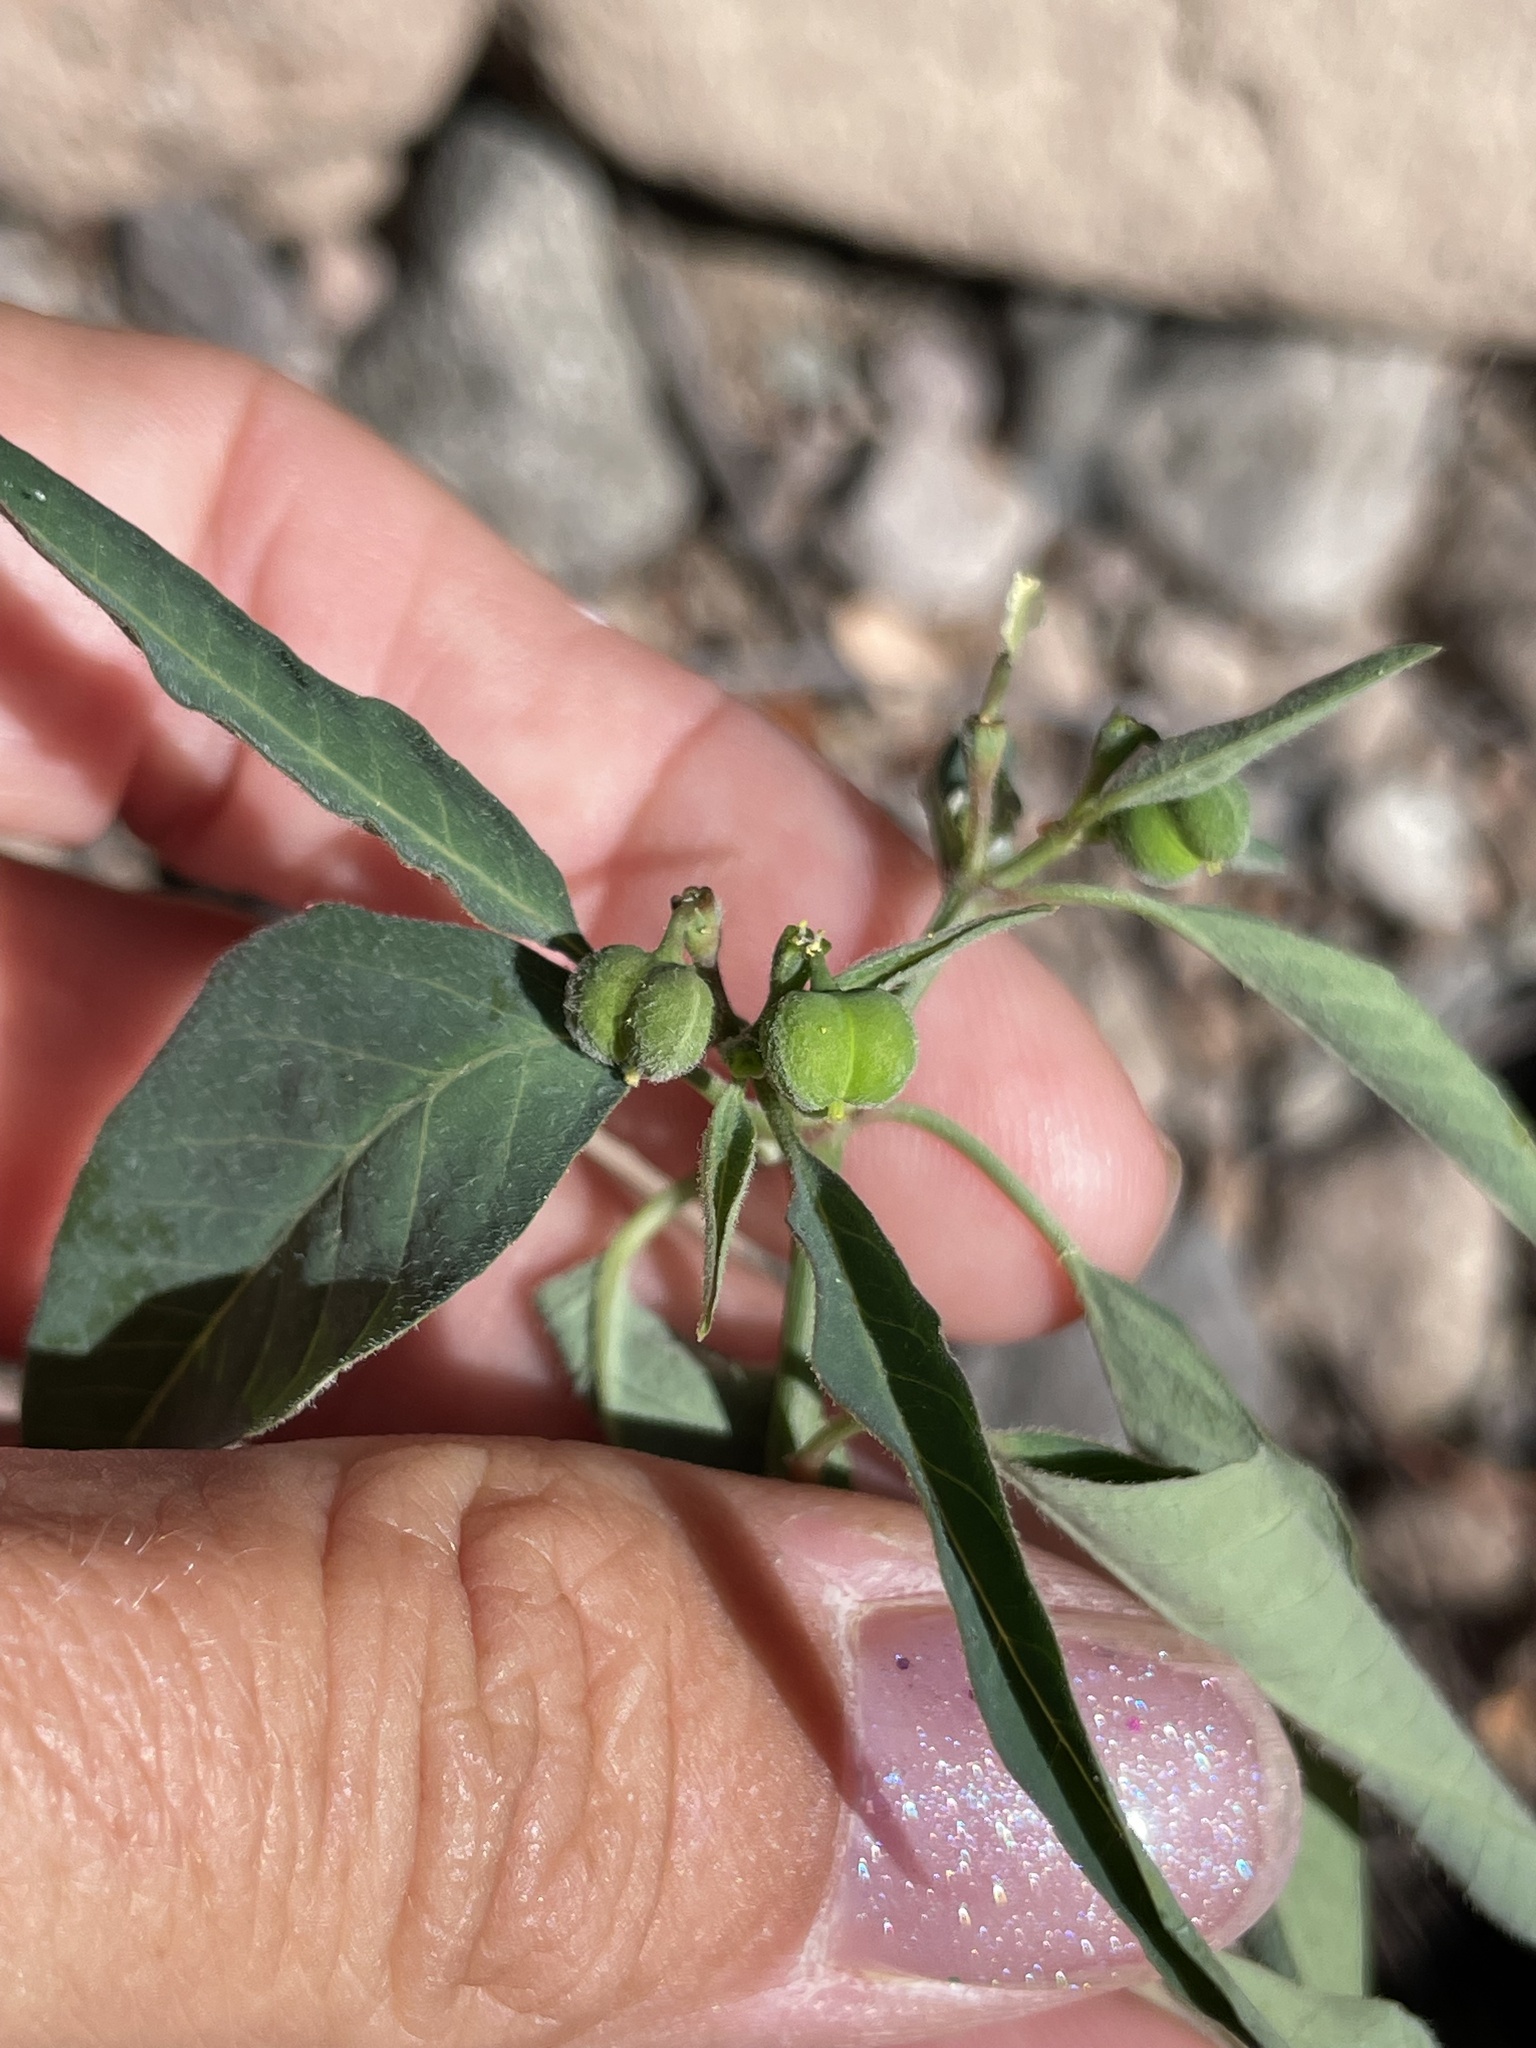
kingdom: Plantae
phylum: Tracheophyta
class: Magnoliopsida
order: Malpighiales
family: Euphorbiaceae
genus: Euphorbia
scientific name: Euphorbia chersonesa
